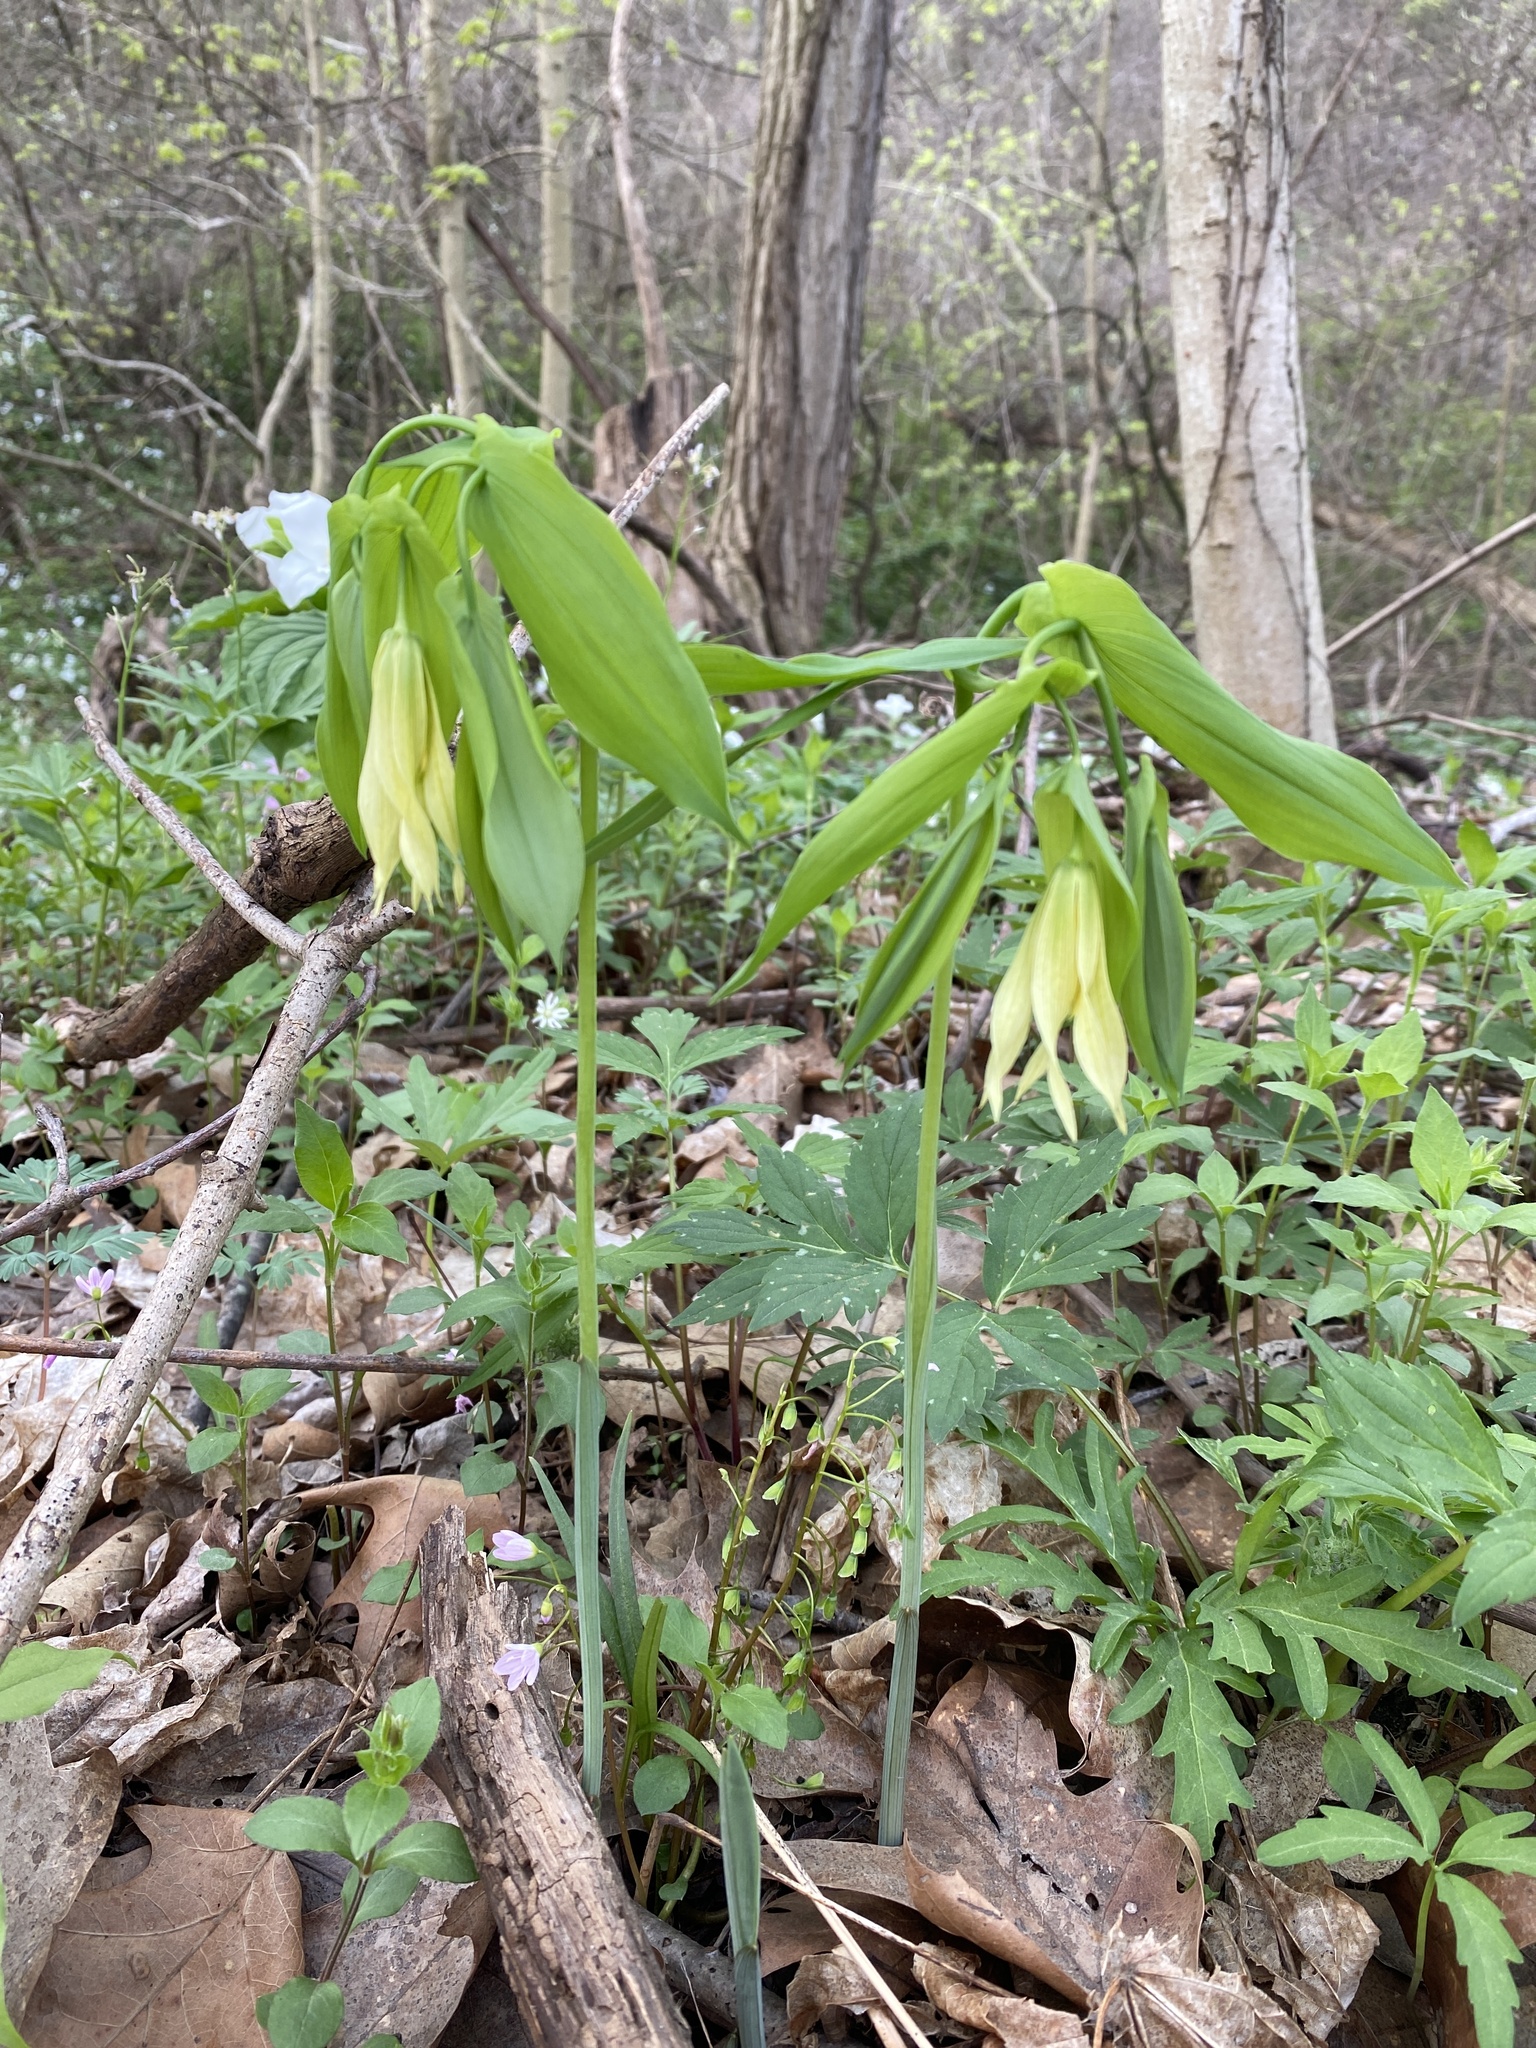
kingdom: Plantae
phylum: Tracheophyta
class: Liliopsida
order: Liliales
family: Colchicaceae
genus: Uvularia
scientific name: Uvularia grandiflora
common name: Bellwort
